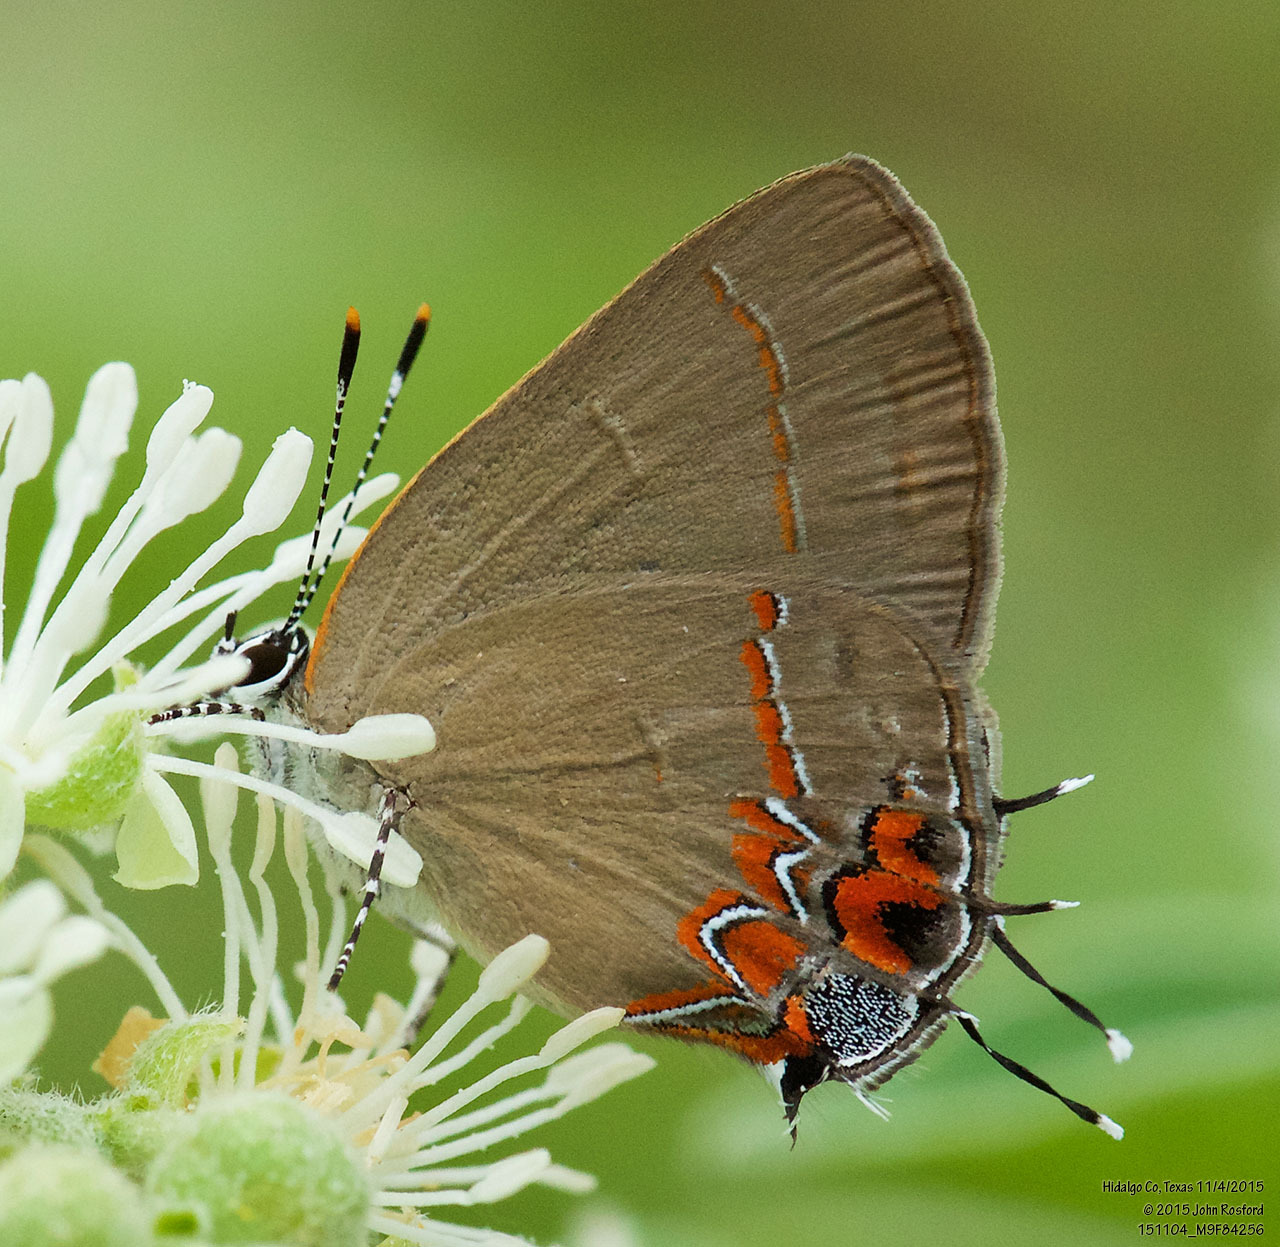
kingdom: Animalia
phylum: Arthropoda
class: Insecta
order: Lepidoptera
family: Lycaenidae
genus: Calycopis
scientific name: Calycopis isobeon
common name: Dusky-blue groundstreak
